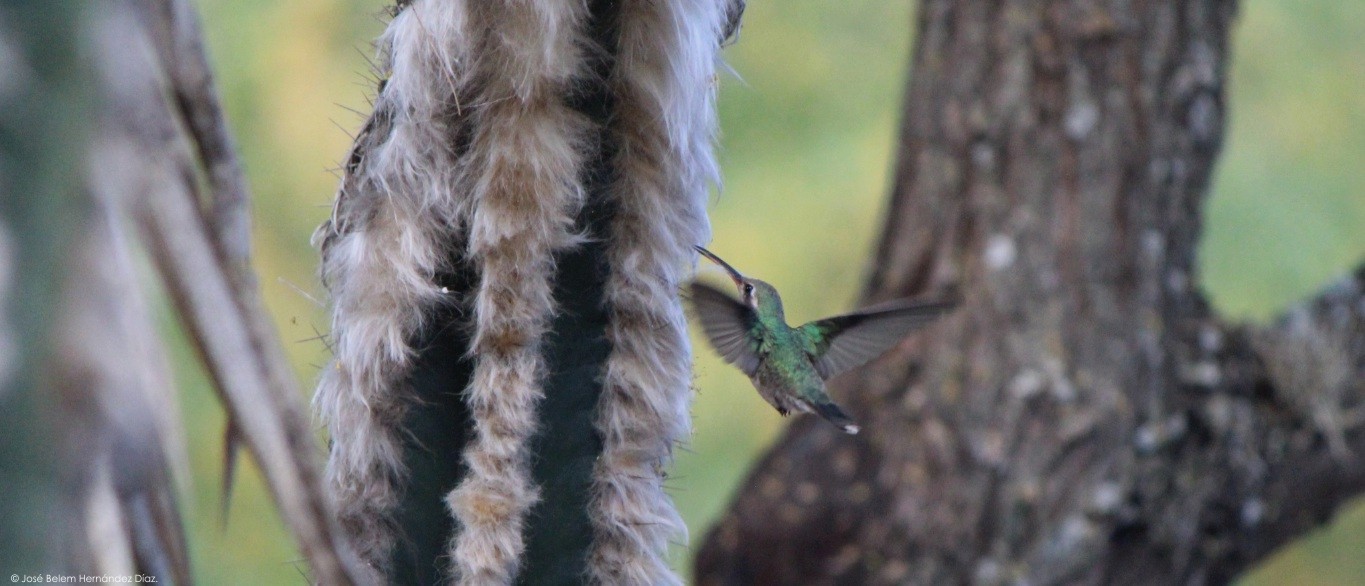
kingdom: Animalia
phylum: Chordata
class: Aves
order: Apodiformes
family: Trochilidae
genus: Cynanthus
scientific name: Cynanthus latirostris
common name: Broad-billed hummingbird
